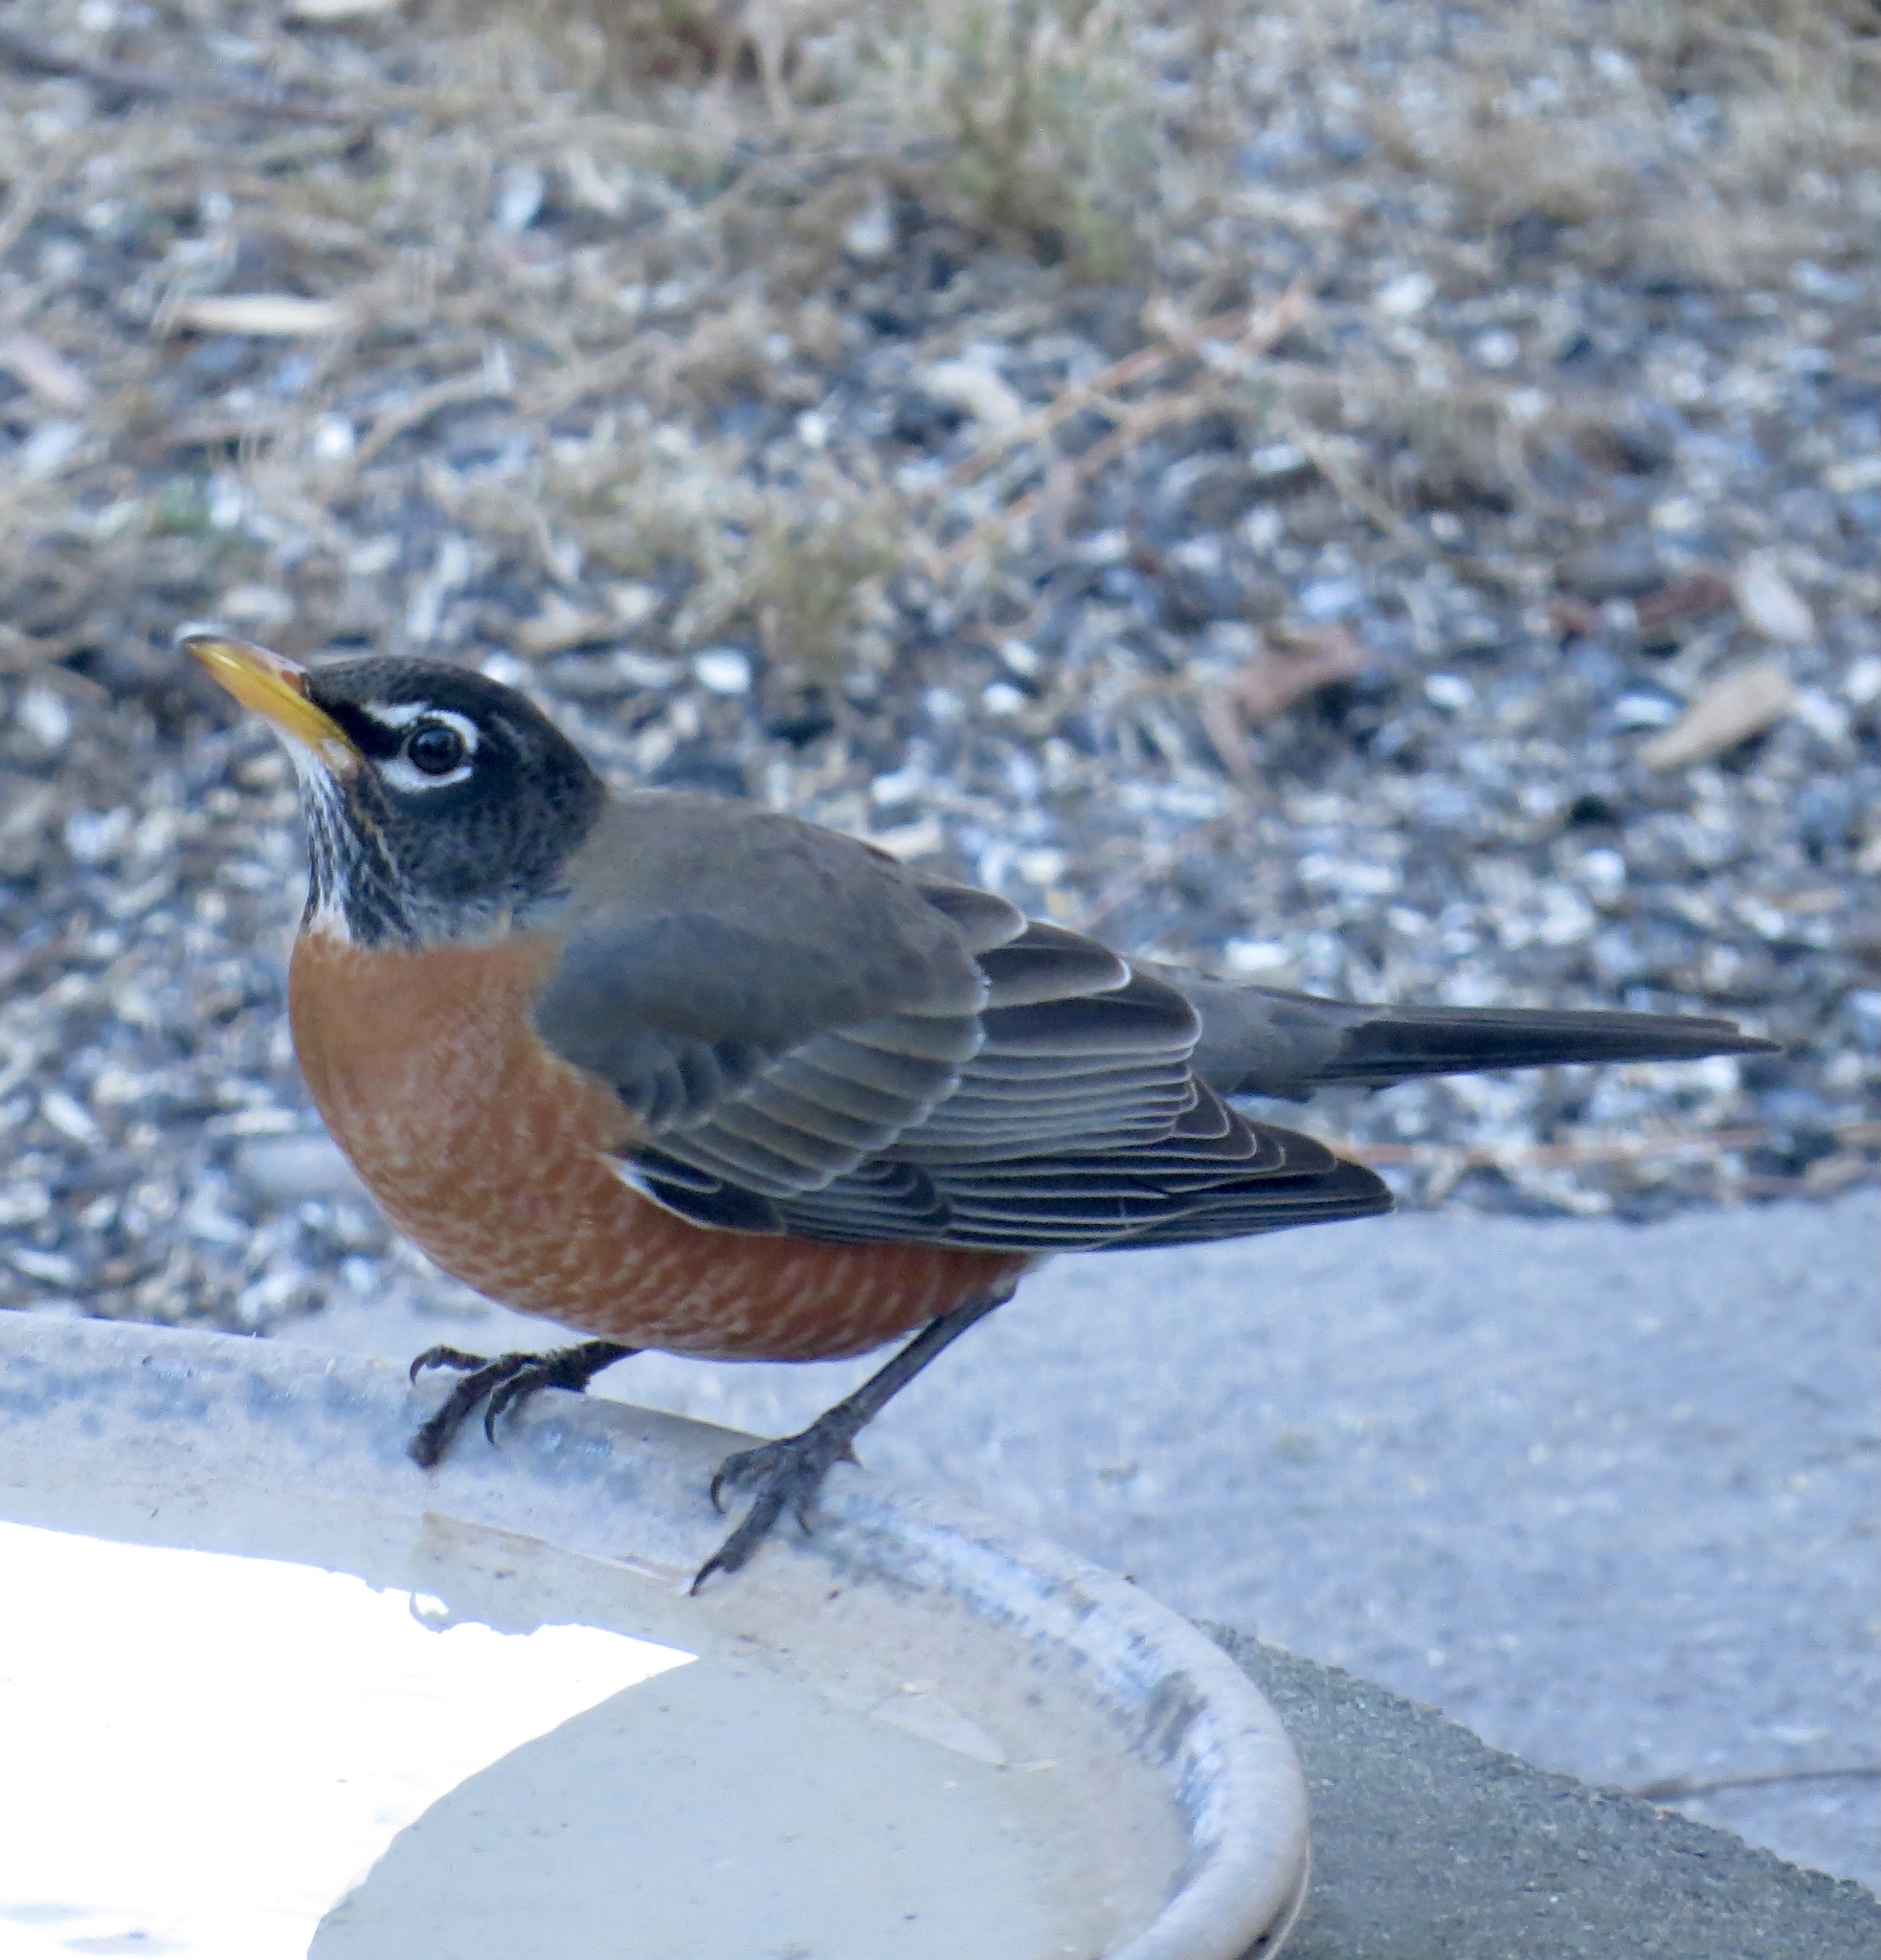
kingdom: Animalia
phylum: Chordata
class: Aves
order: Passeriformes
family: Turdidae
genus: Turdus
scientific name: Turdus migratorius
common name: American robin
